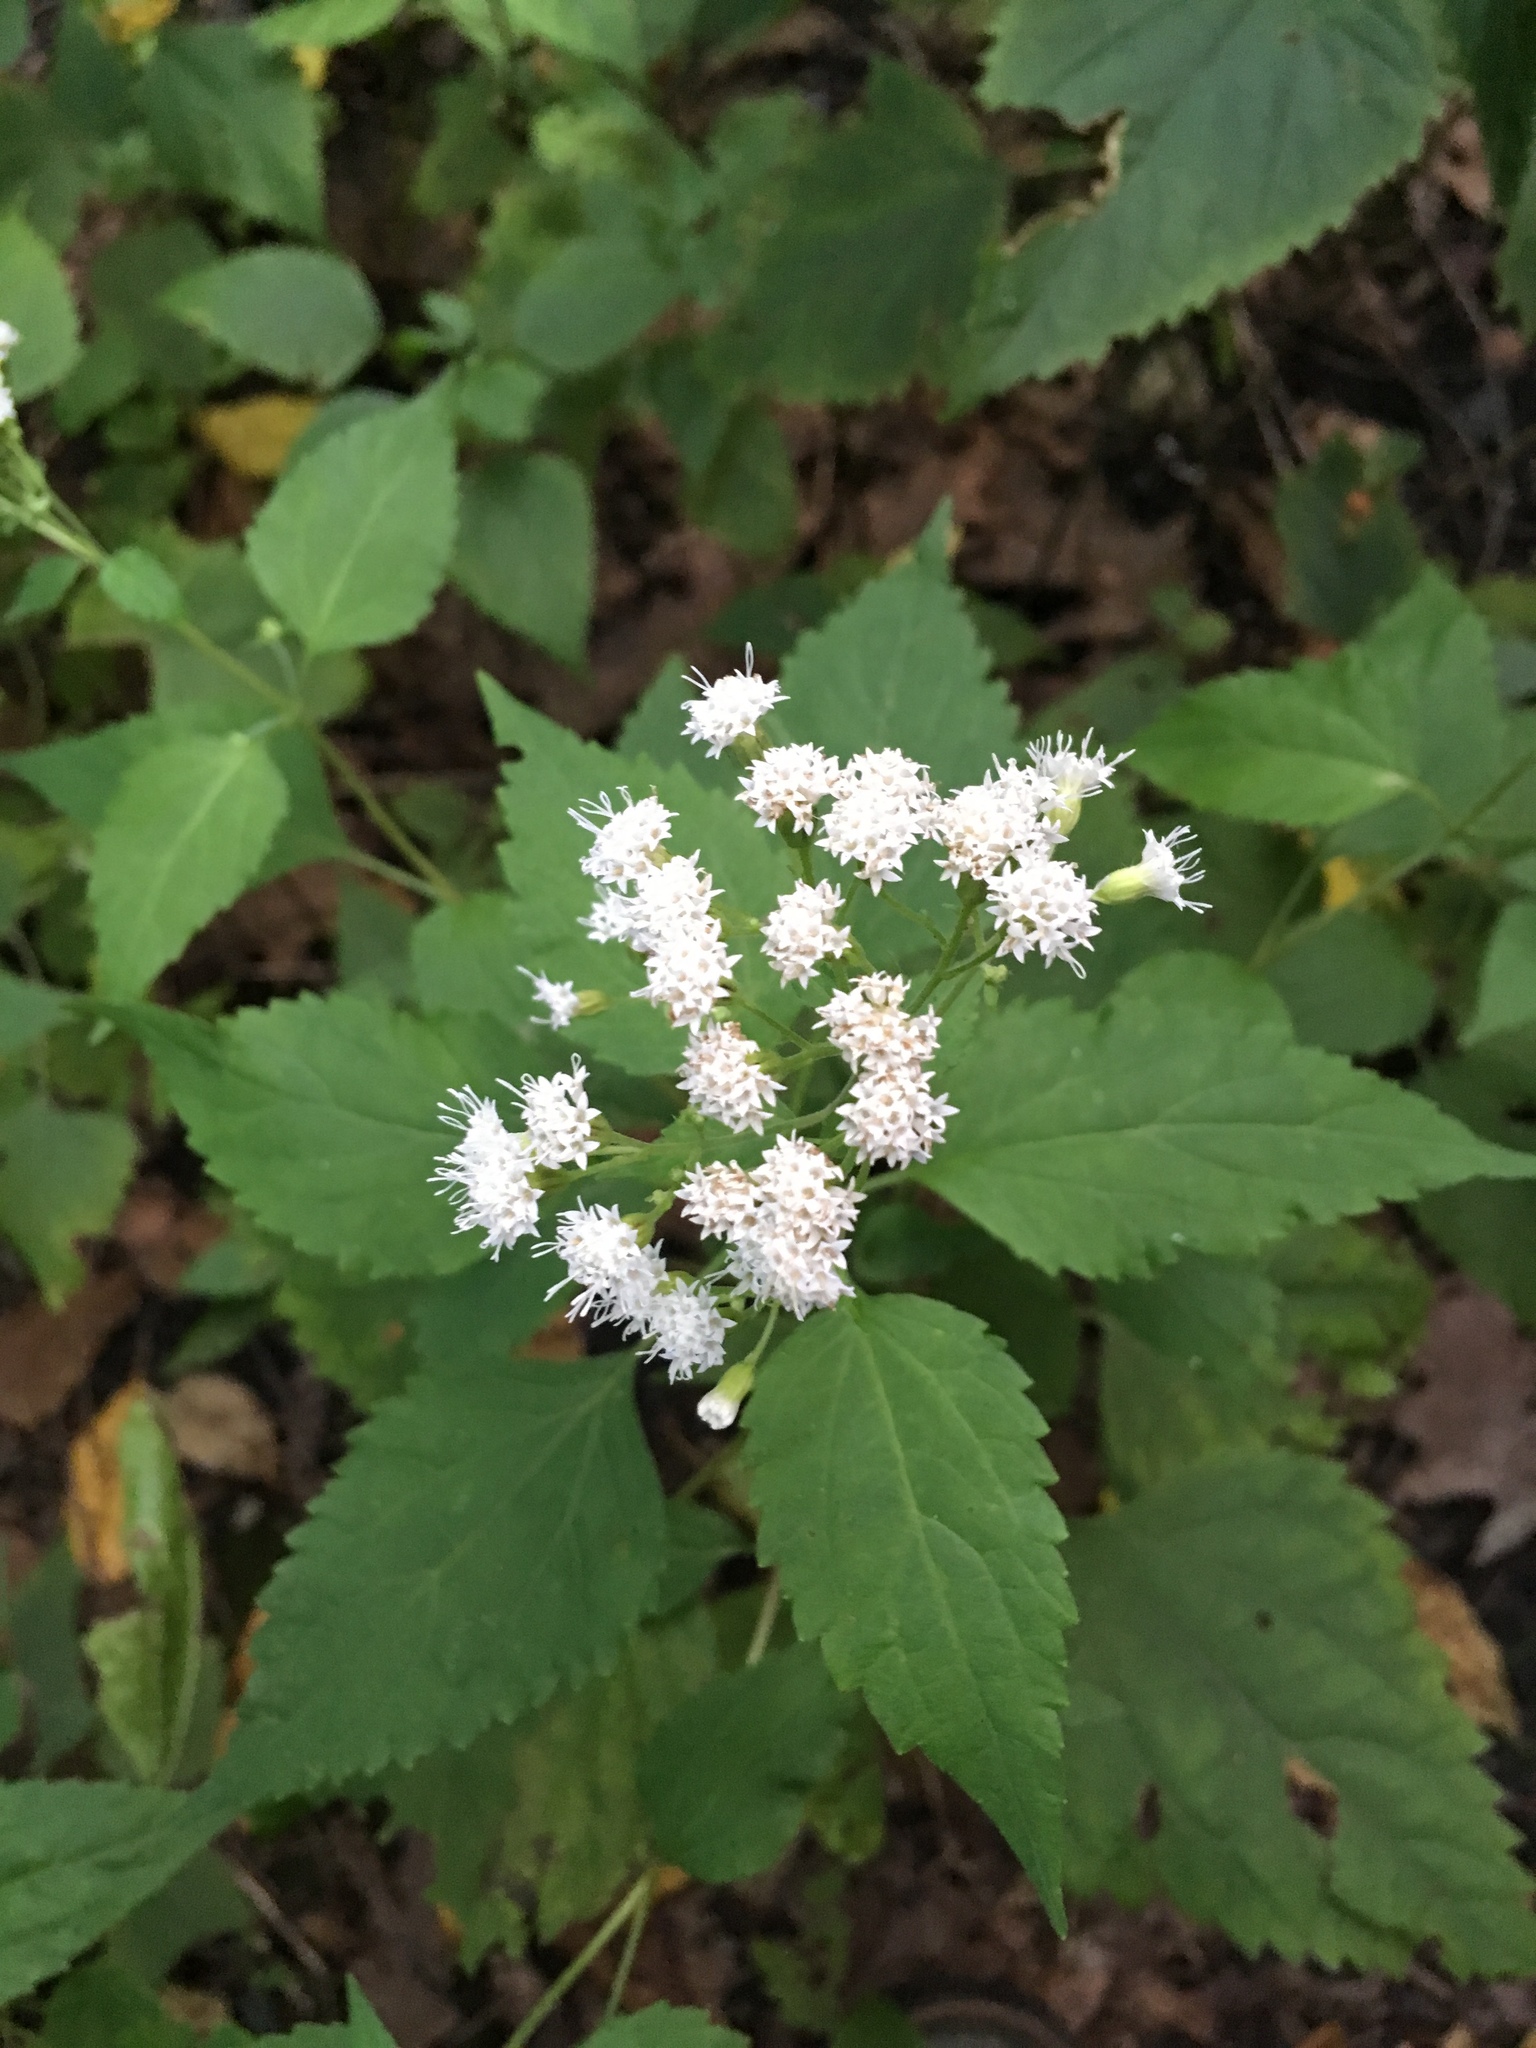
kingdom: Plantae
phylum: Tracheophyta
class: Magnoliopsida
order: Asterales
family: Asteraceae
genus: Ageratina
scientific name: Ageratina altissima
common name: White snakeroot
